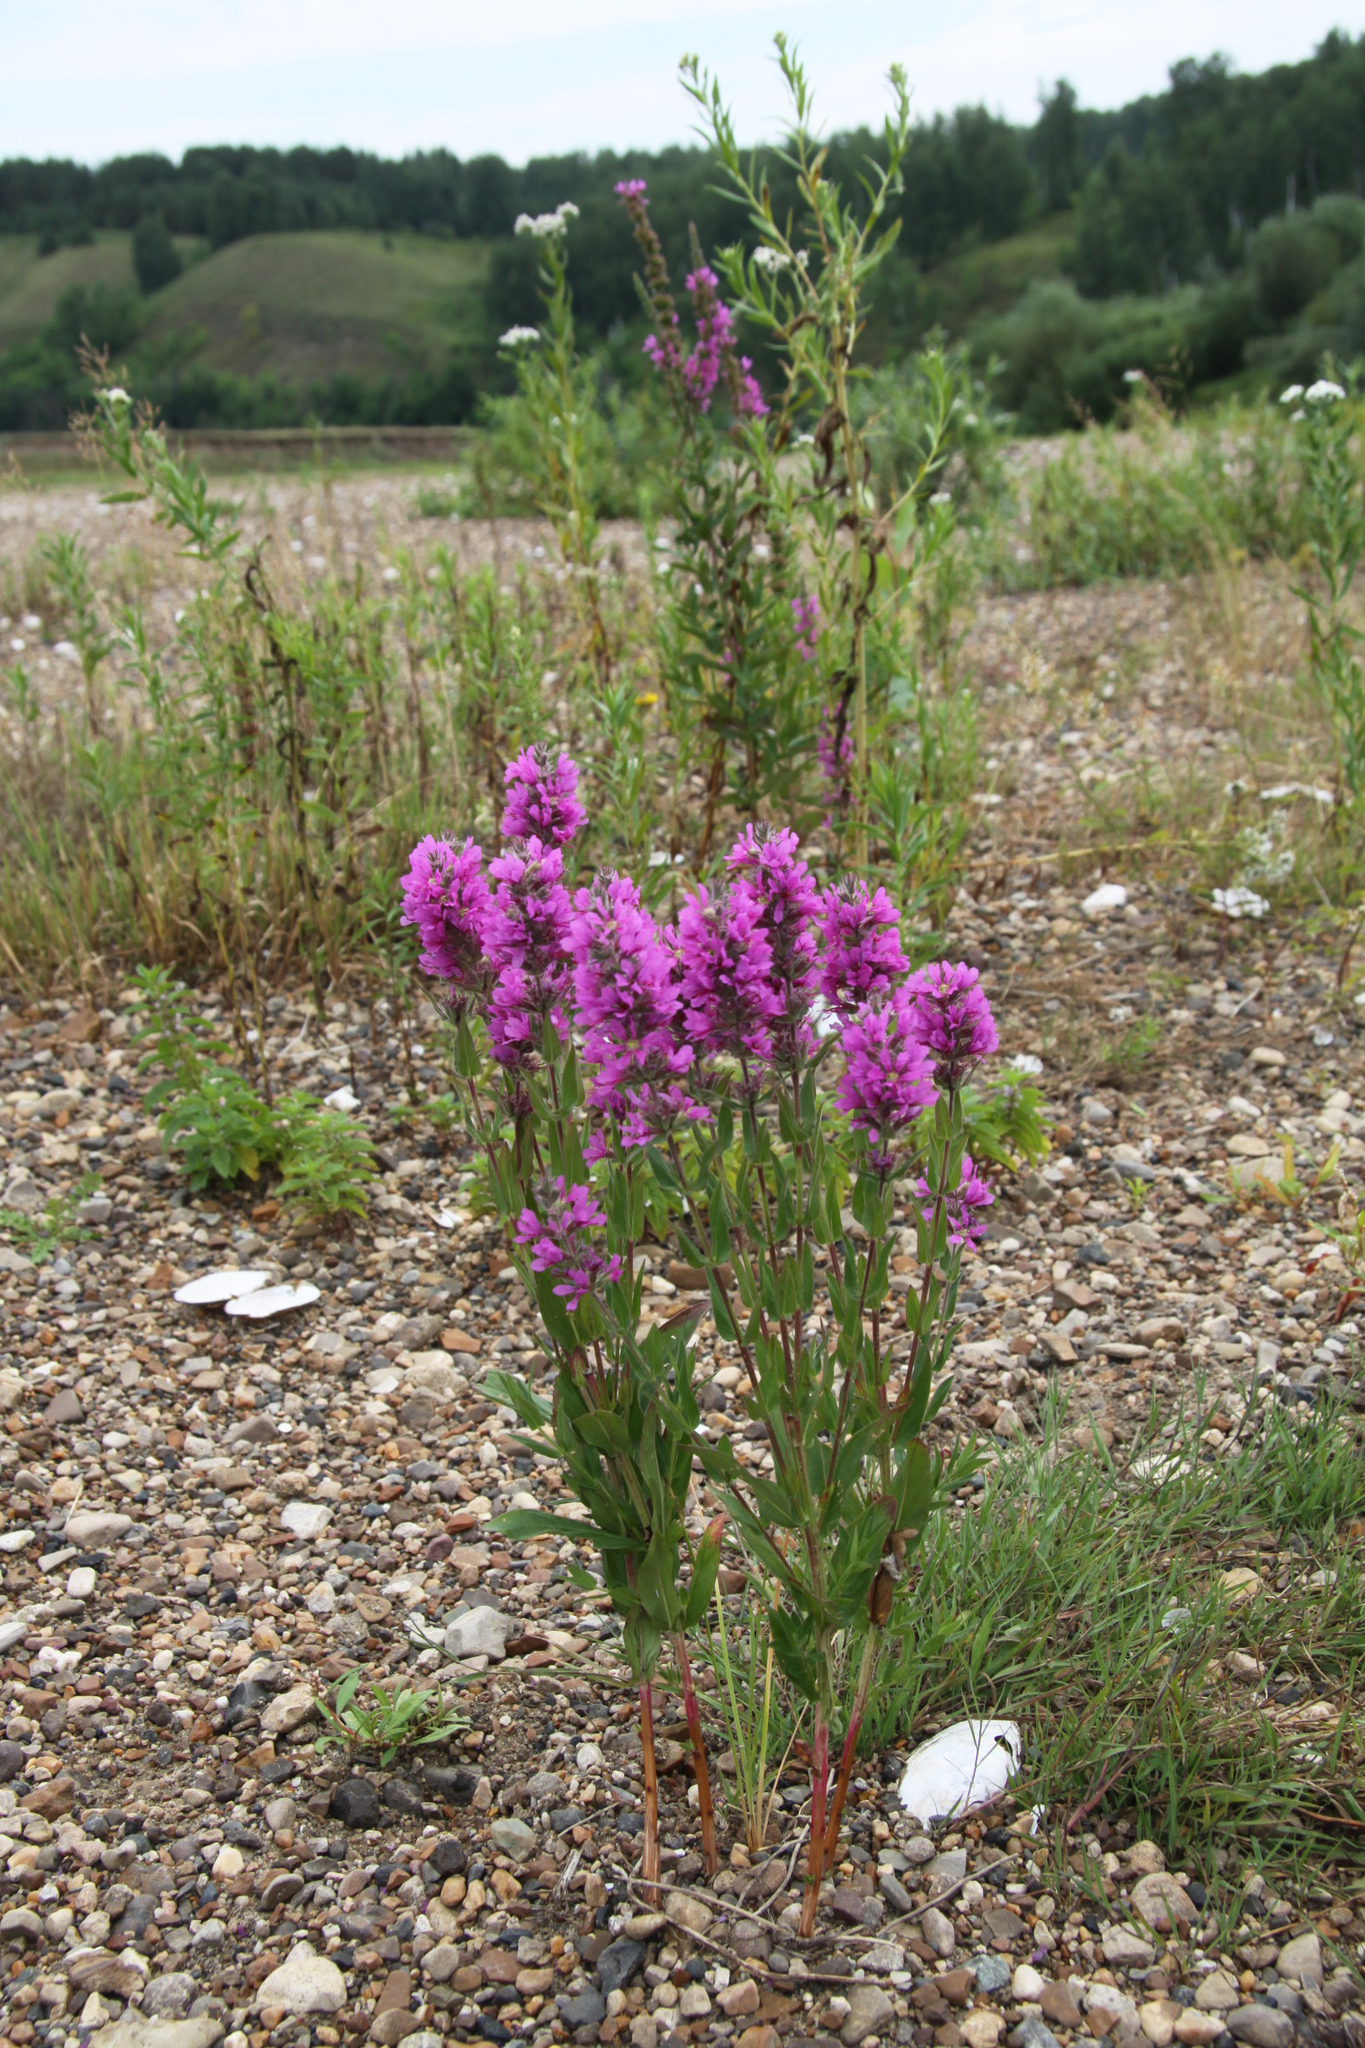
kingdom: Plantae
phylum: Tracheophyta
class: Magnoliopsida
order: Myrtales
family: Lythraceae
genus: Lythrum
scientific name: Lythrum salicaria
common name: Purple loosestrife
